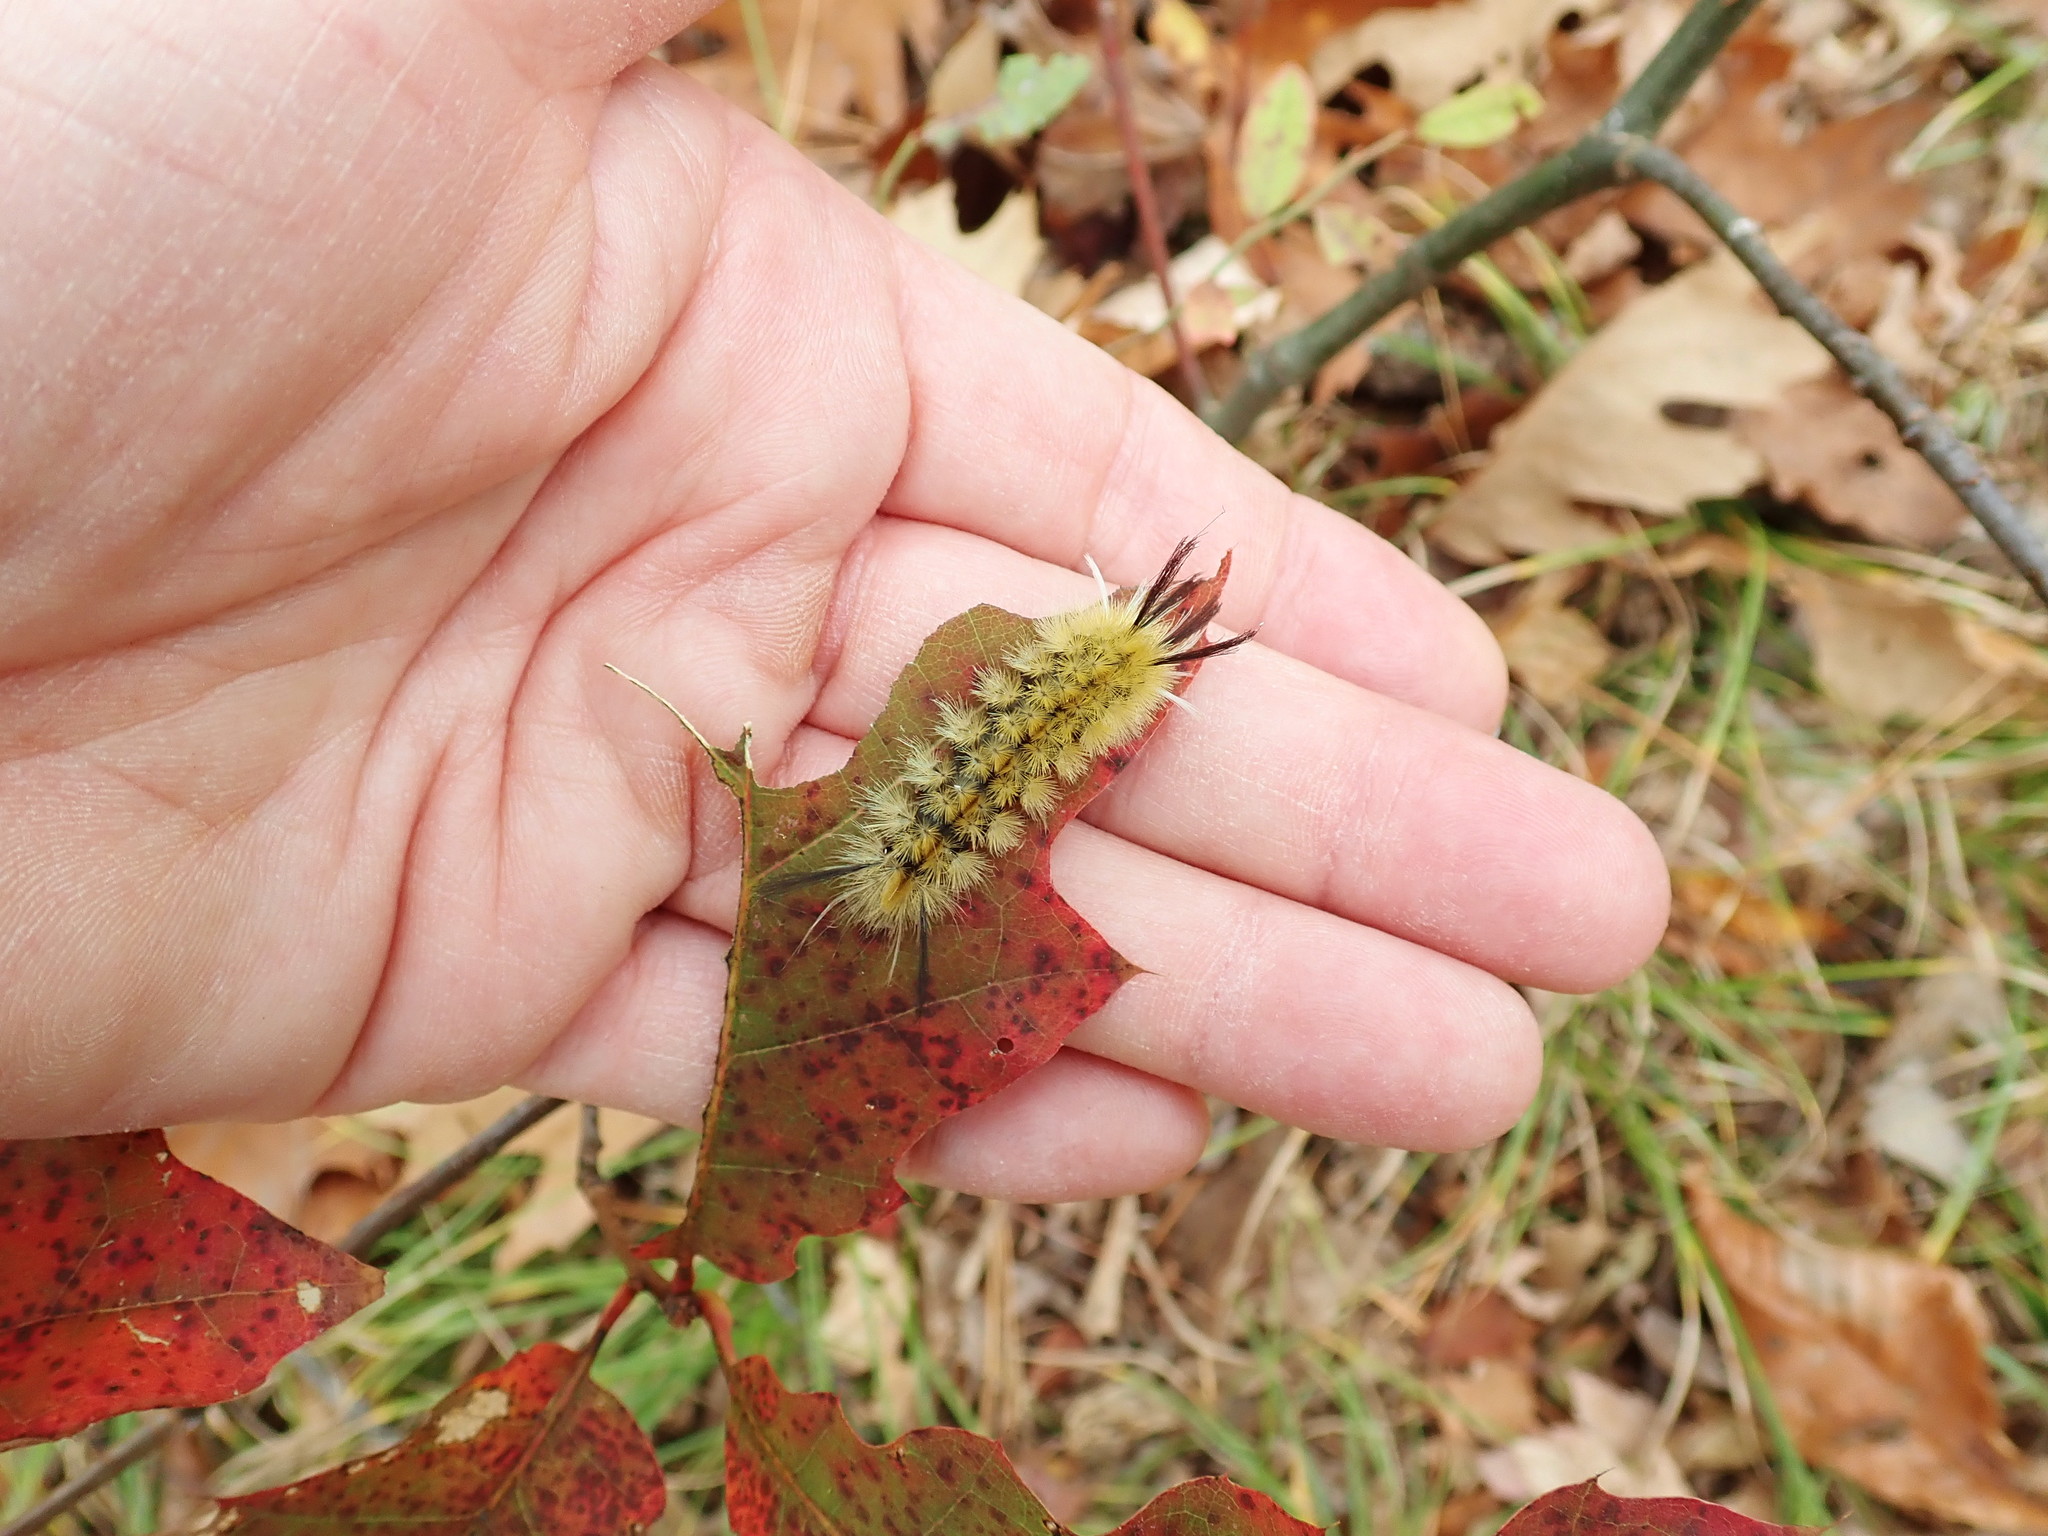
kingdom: Animalia
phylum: Arthropoda
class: Insecta
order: Lepidoptera
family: Erebidae
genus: Halysidota
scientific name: Halysidota tessellaris
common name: Banded tussock moth
